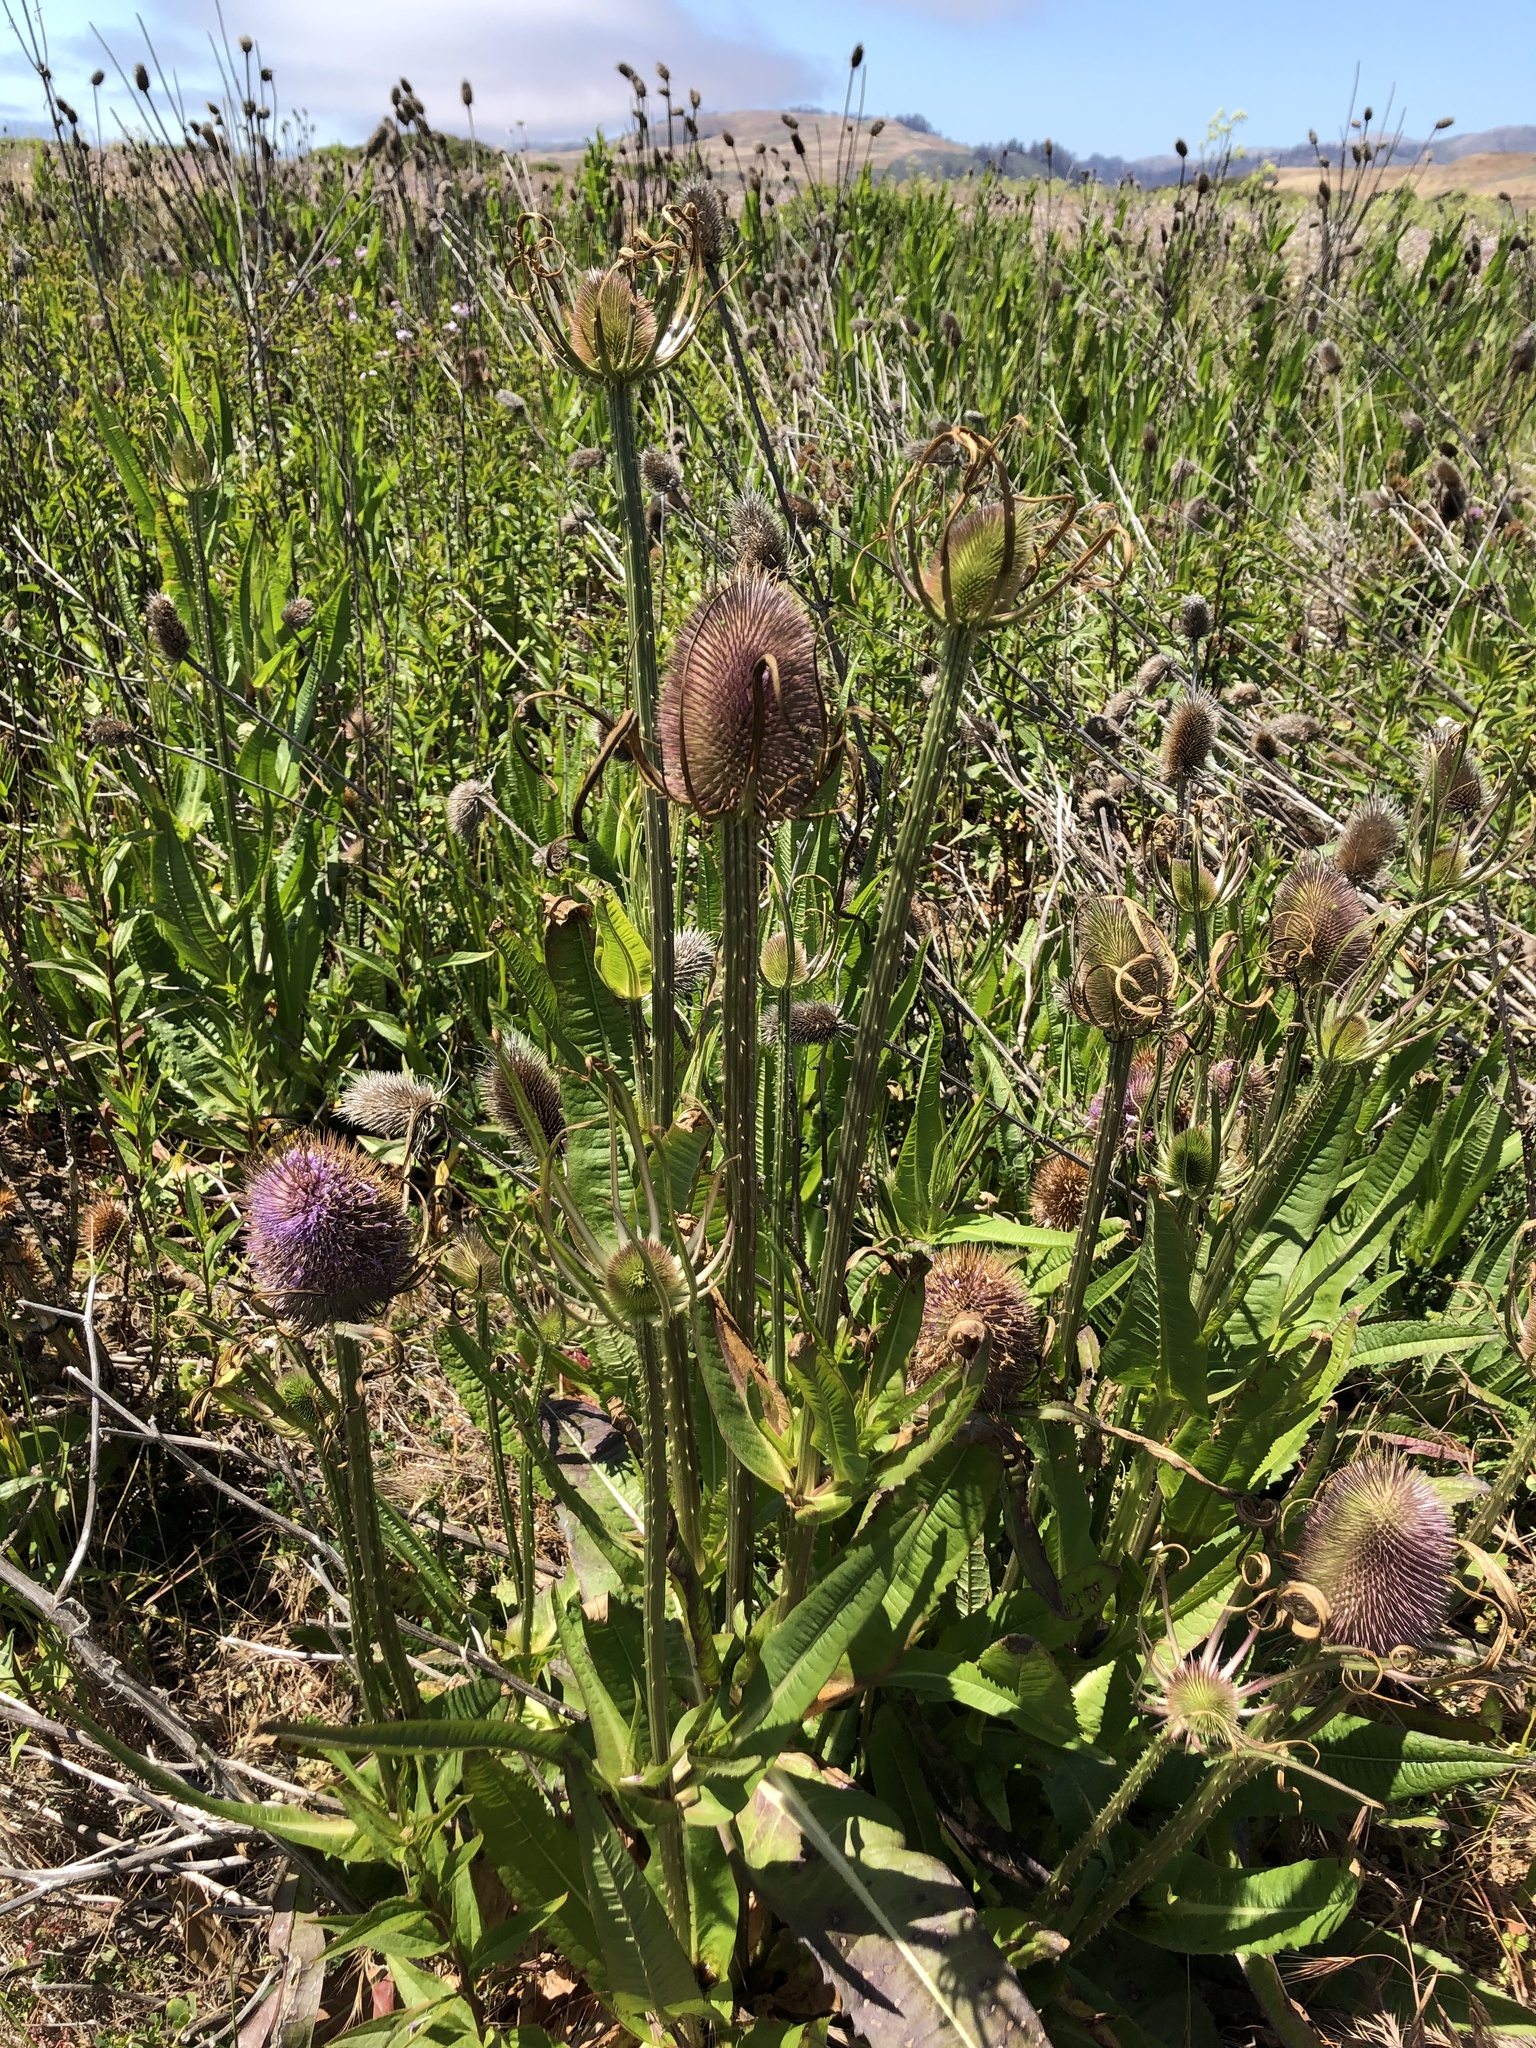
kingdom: Plantae
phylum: Tracheophyta
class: Magnoliopsida
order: Dipsacales
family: Caprifoliaceae
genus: Dipsacus
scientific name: Dipsacus fullonum
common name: Teasel
